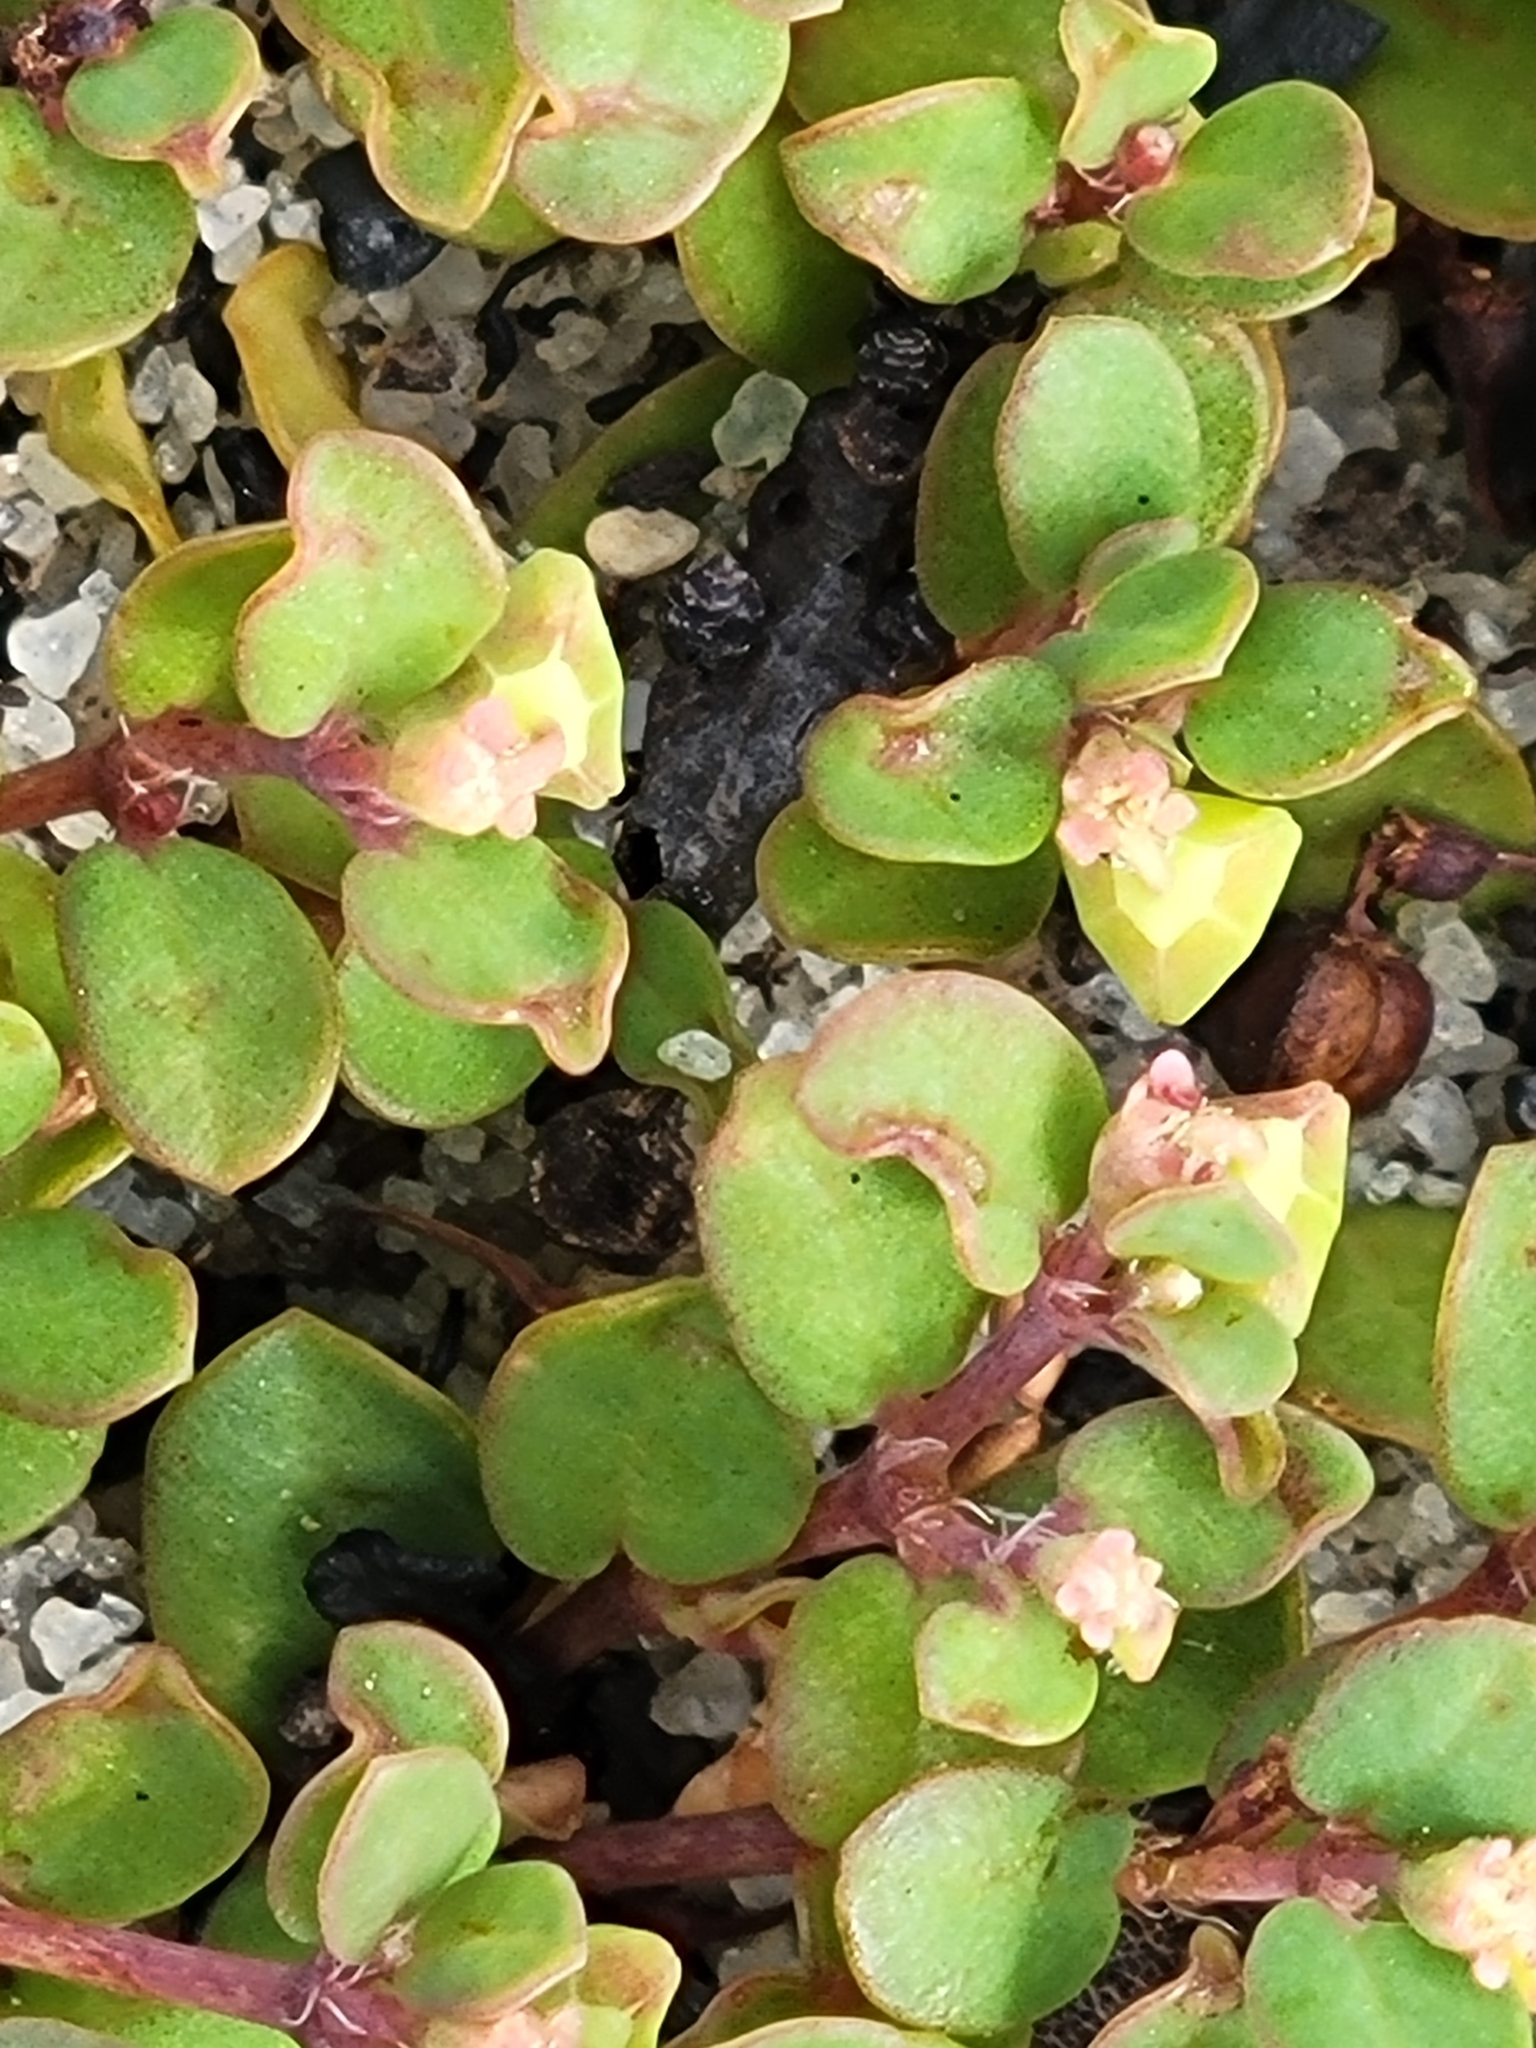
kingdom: Plantae
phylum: Tracheophyta
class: Magnoliopsida
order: Malpighiales
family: Euphorbiaceae
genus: Euphorbia
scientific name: Euphorbia cordifolia
